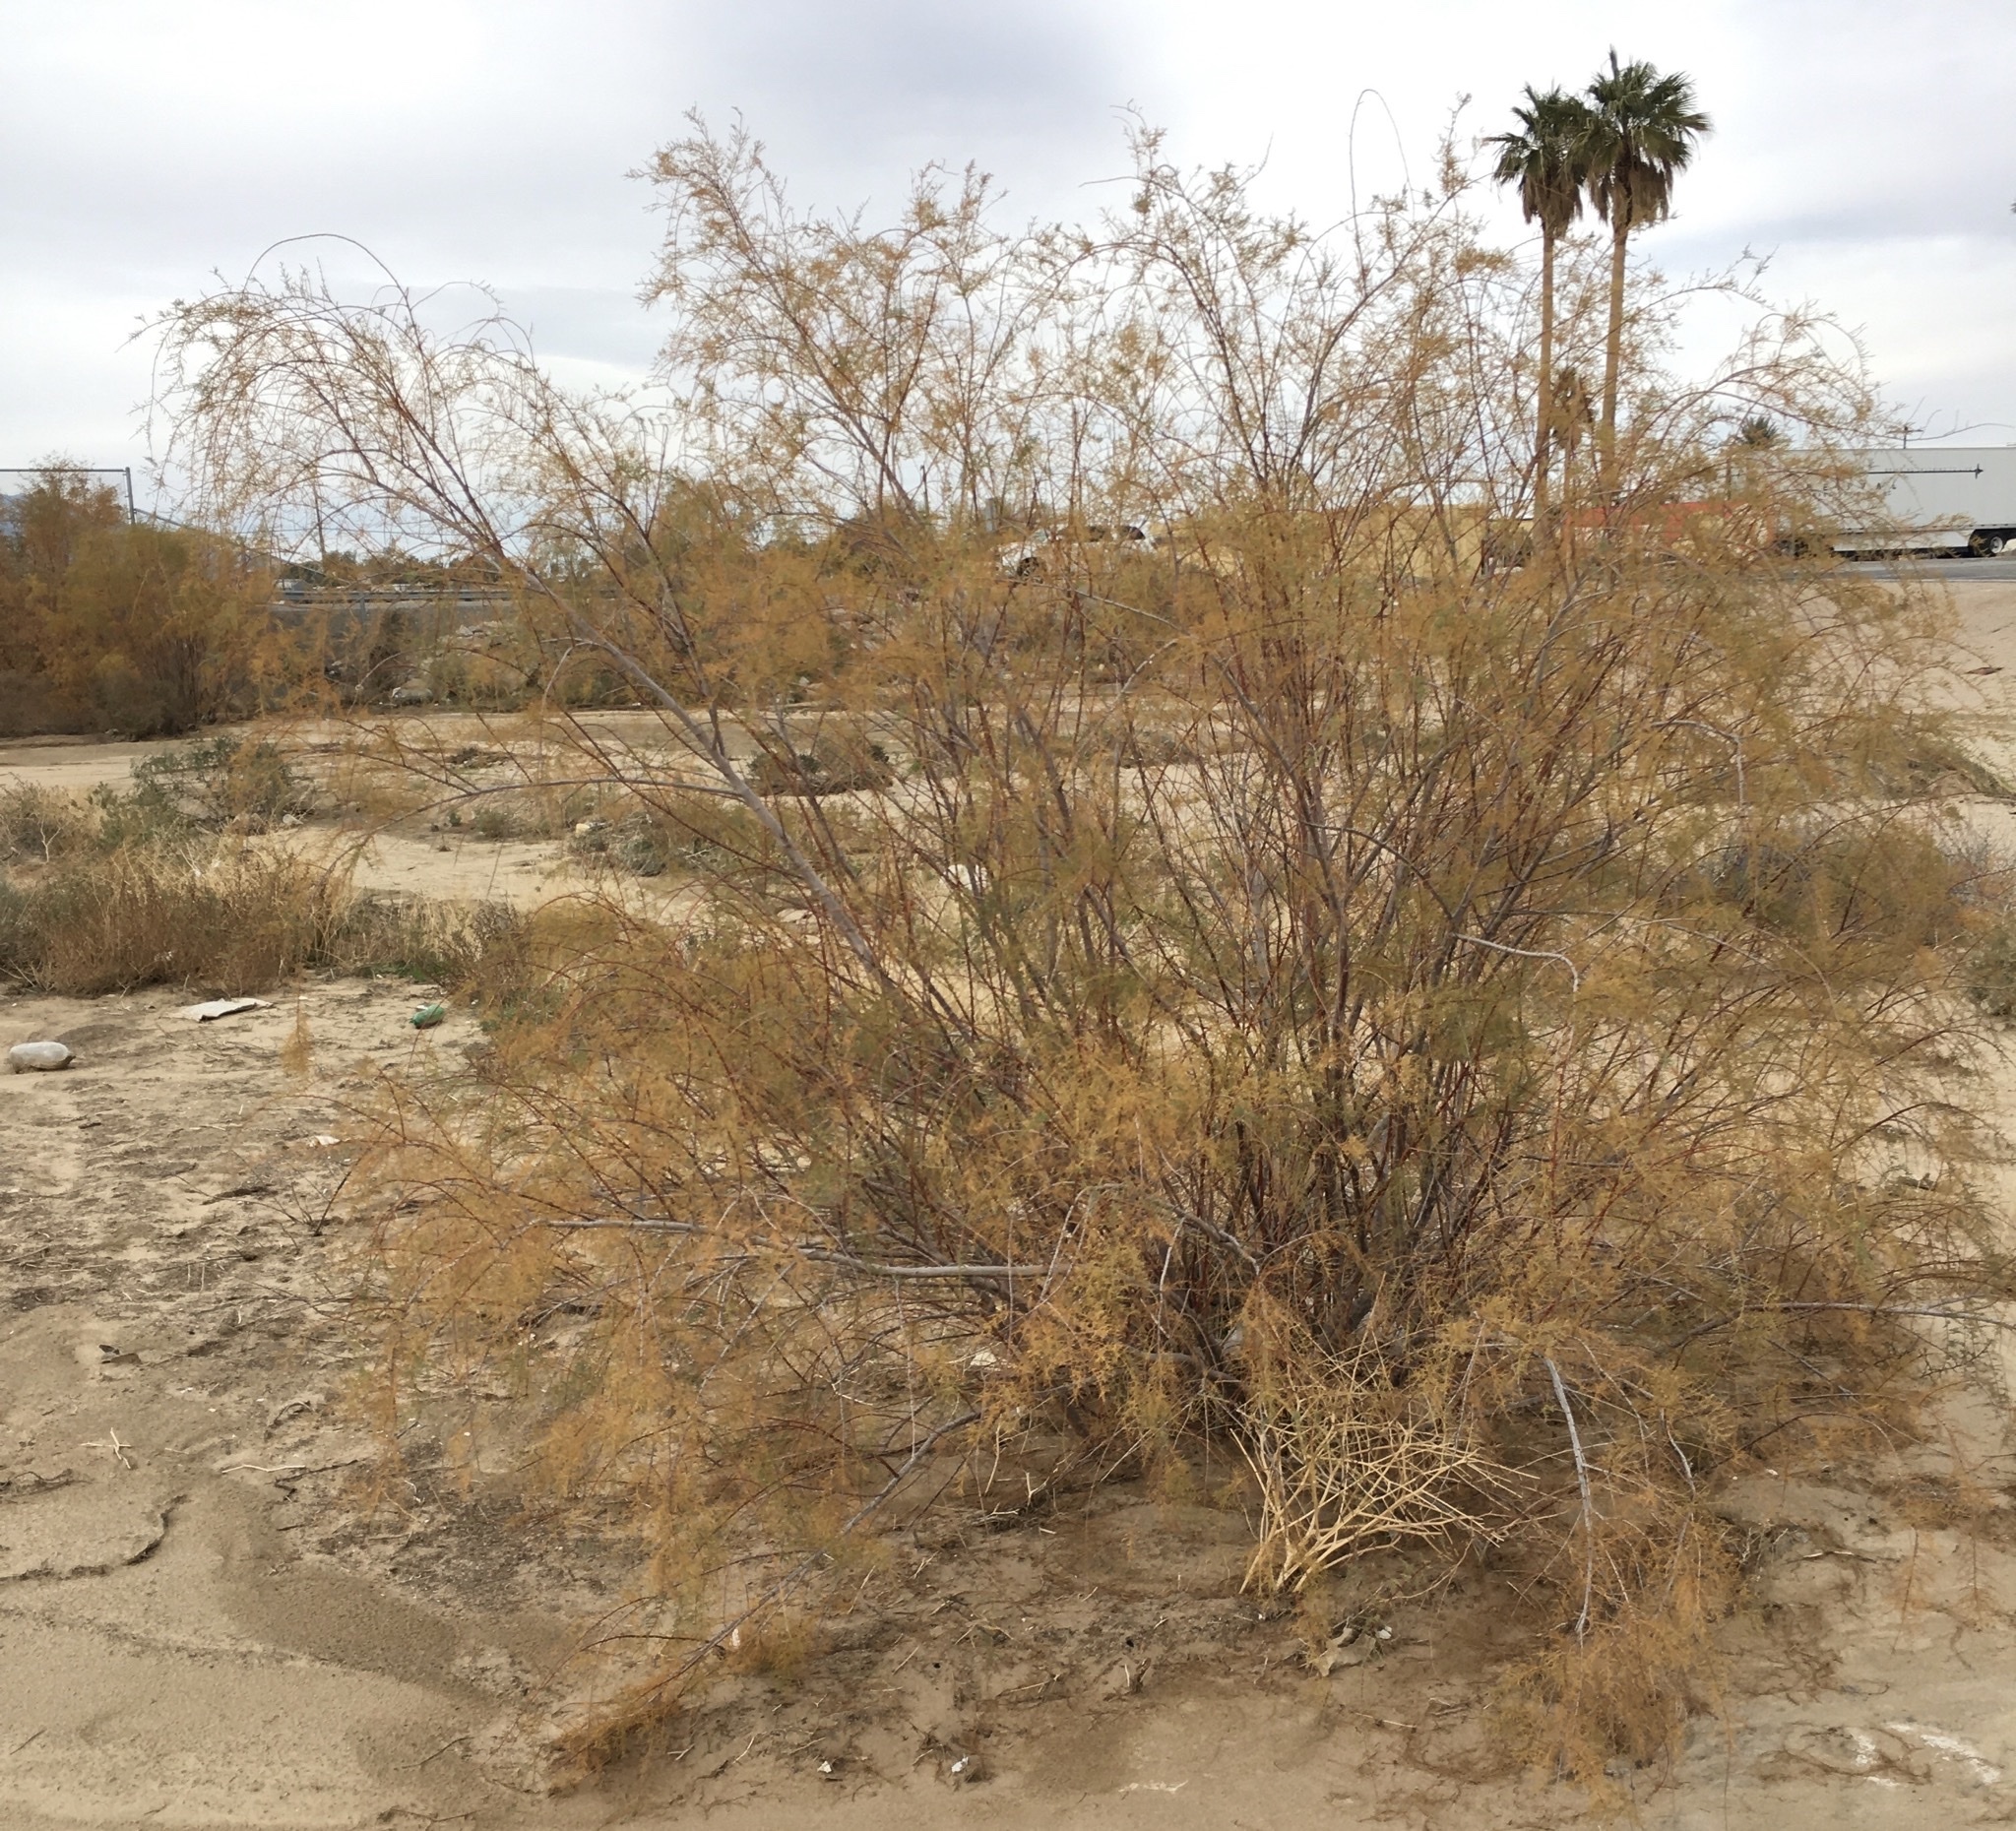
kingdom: Plantae
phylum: Tracheophyta
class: Magnoliopsida
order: Caryophyllales
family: Tamaricaceae
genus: Tamarix
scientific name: Tamarix
